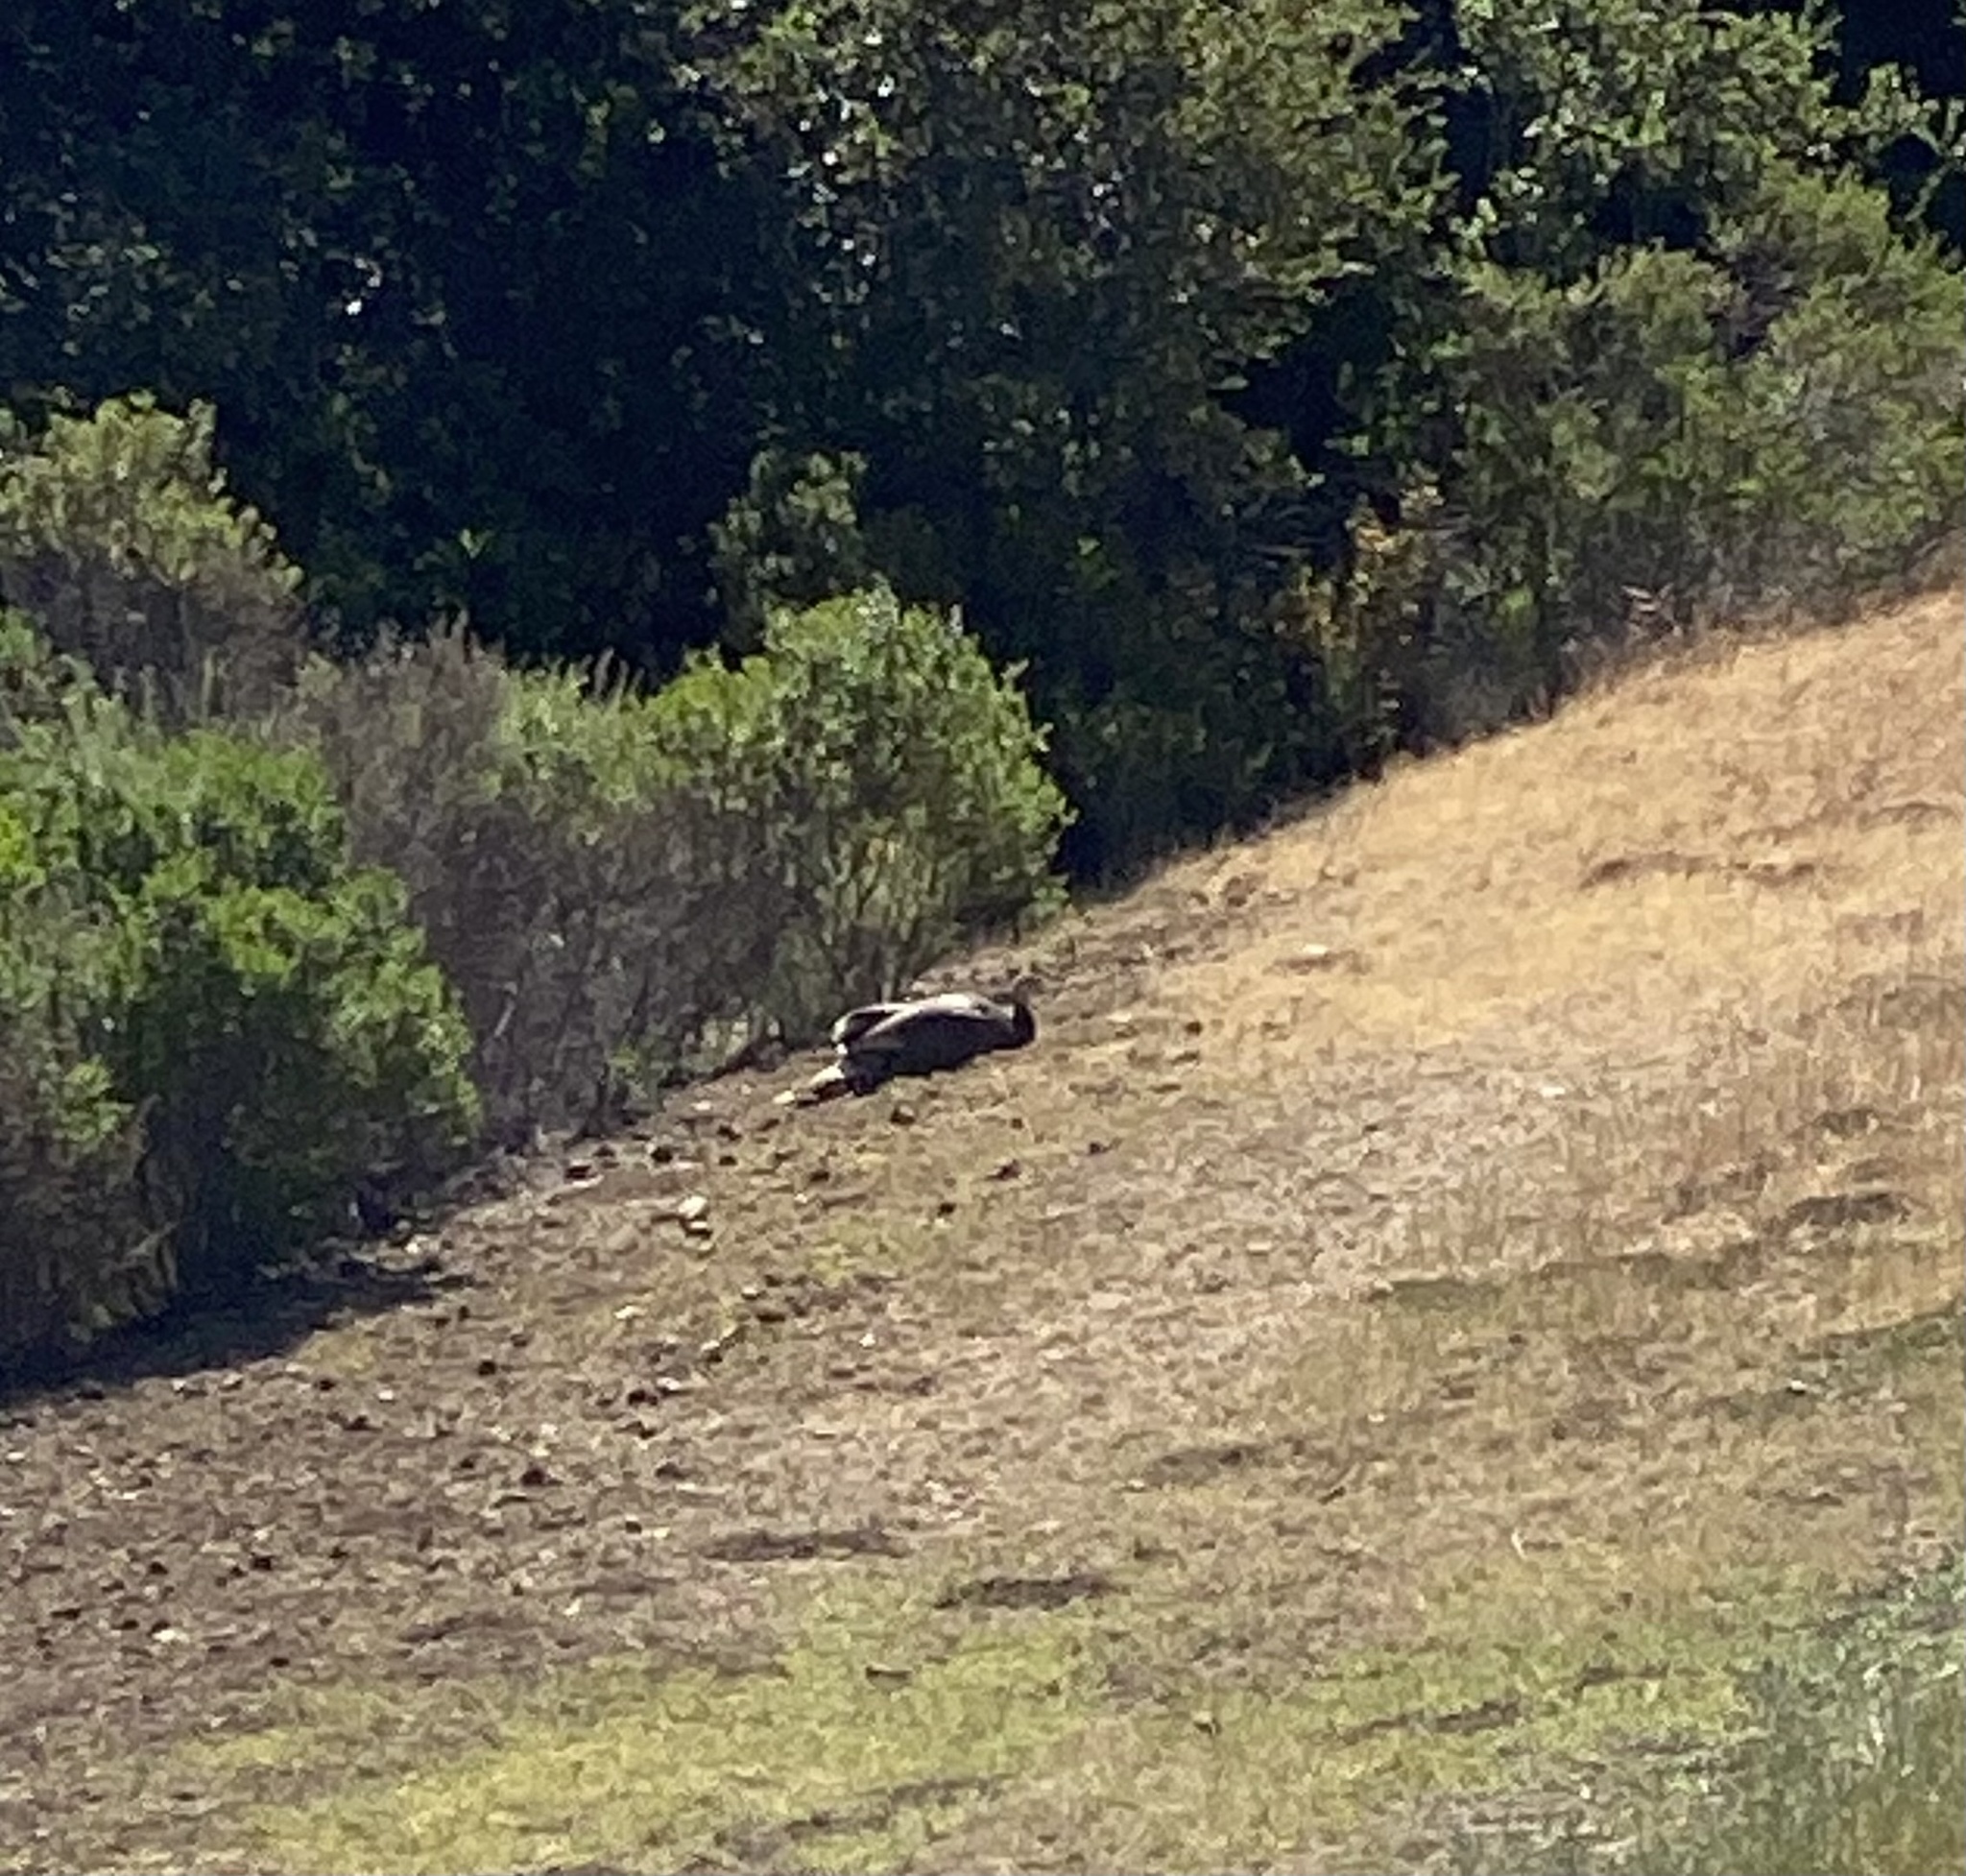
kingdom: Animalia
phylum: Chordata
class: Aves
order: Galliformes
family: Phasianidae
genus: Meleagris
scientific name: Meleagris gallopavo
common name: Wild turkey
